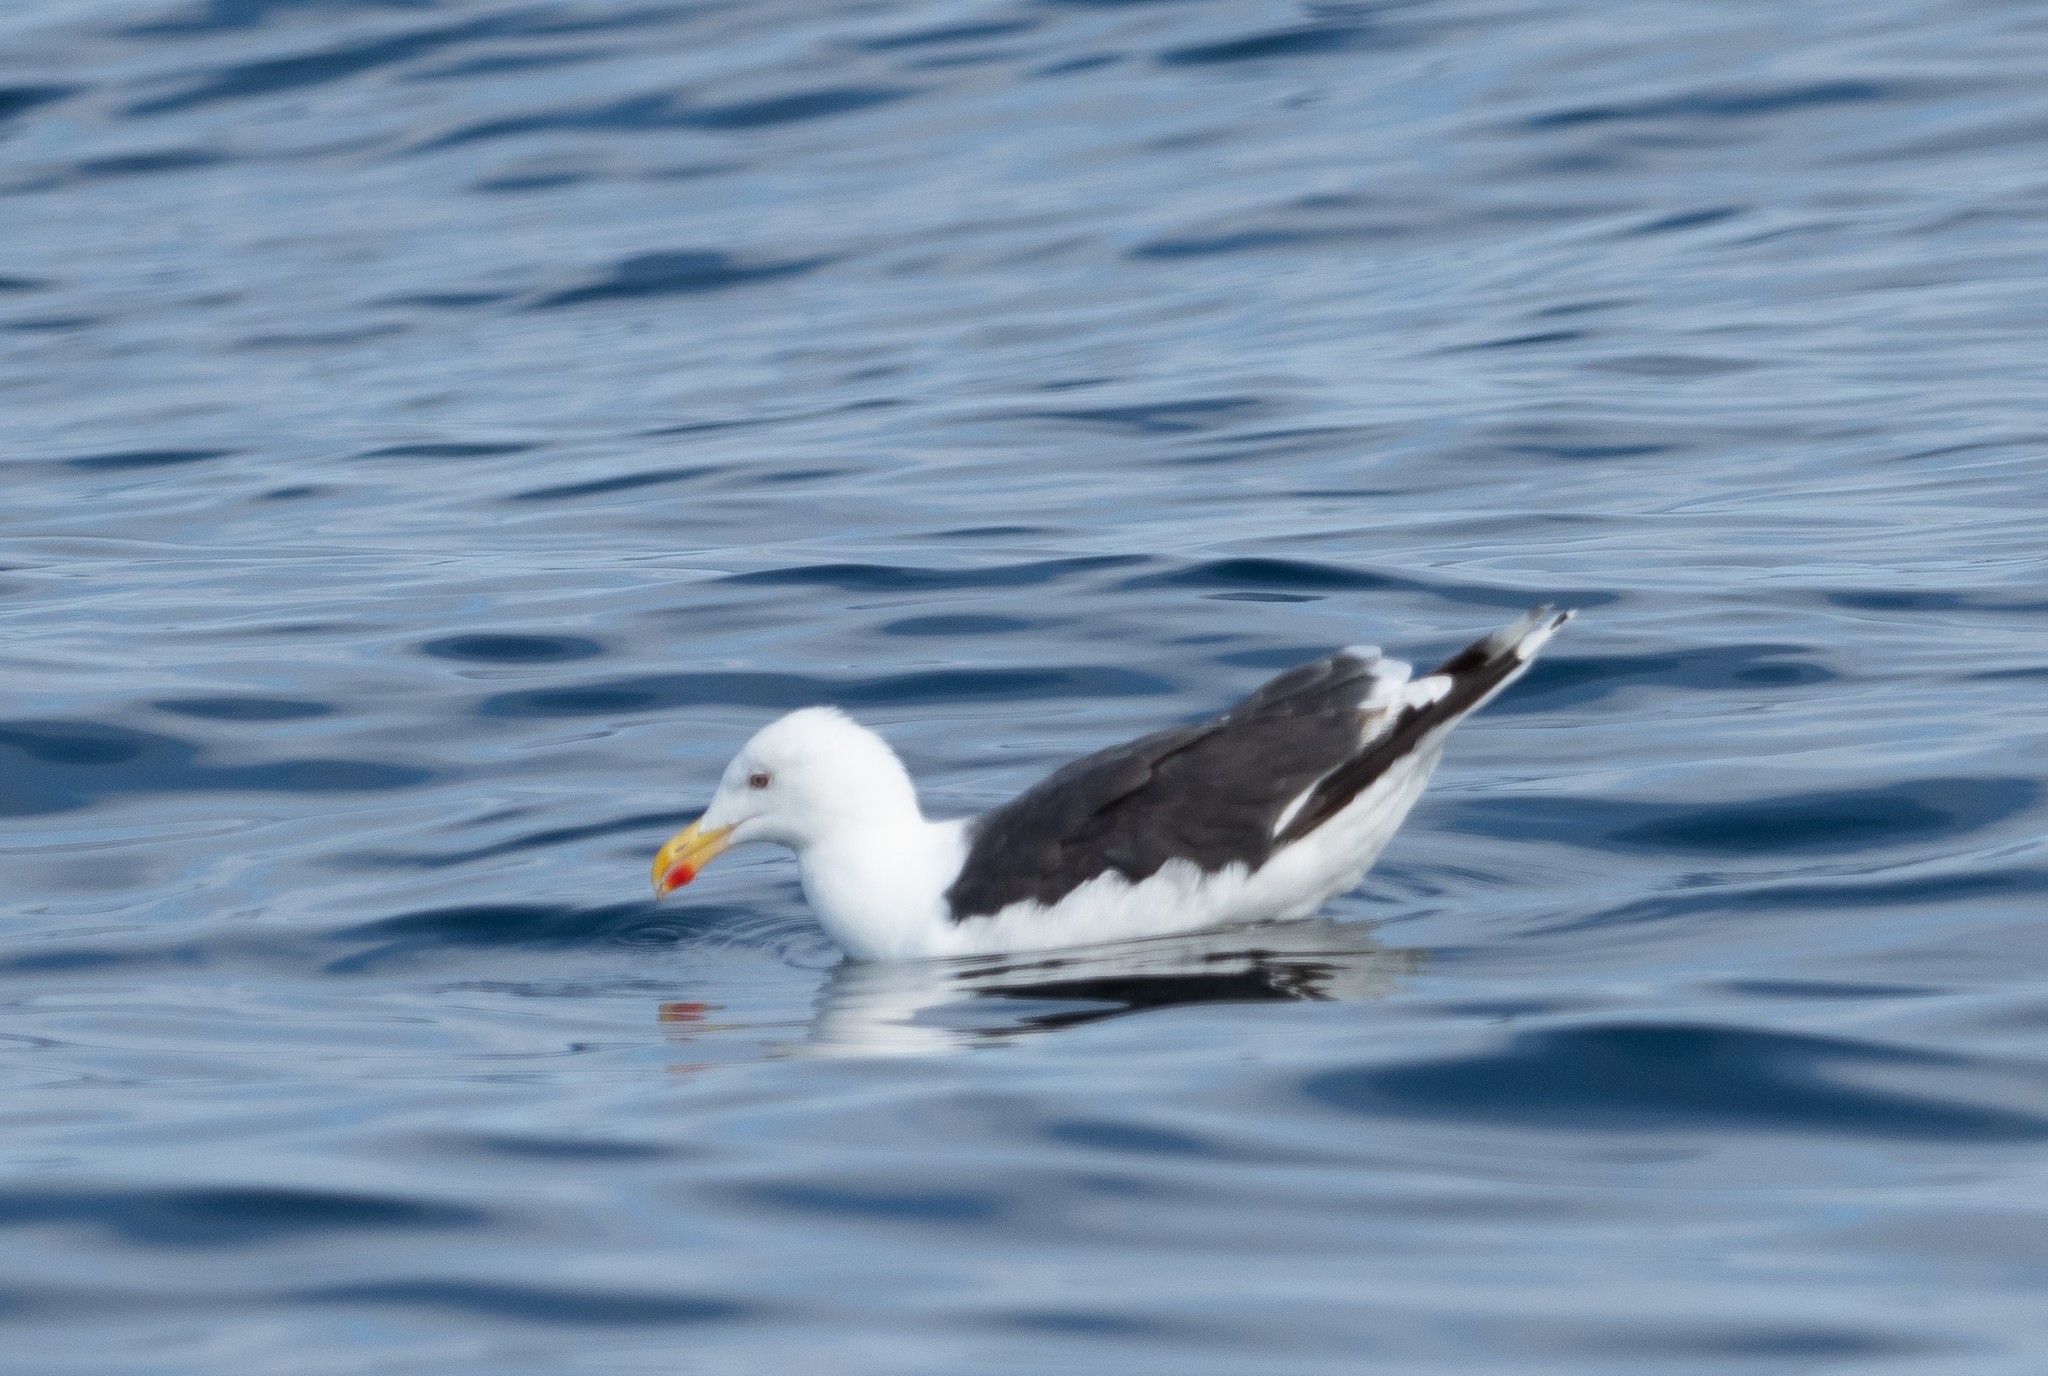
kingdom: Animalia
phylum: Chordata
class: Aves
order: Charadriiformes
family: Laridae
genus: Larus
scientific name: Larus marinus
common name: Great black-backed gull
